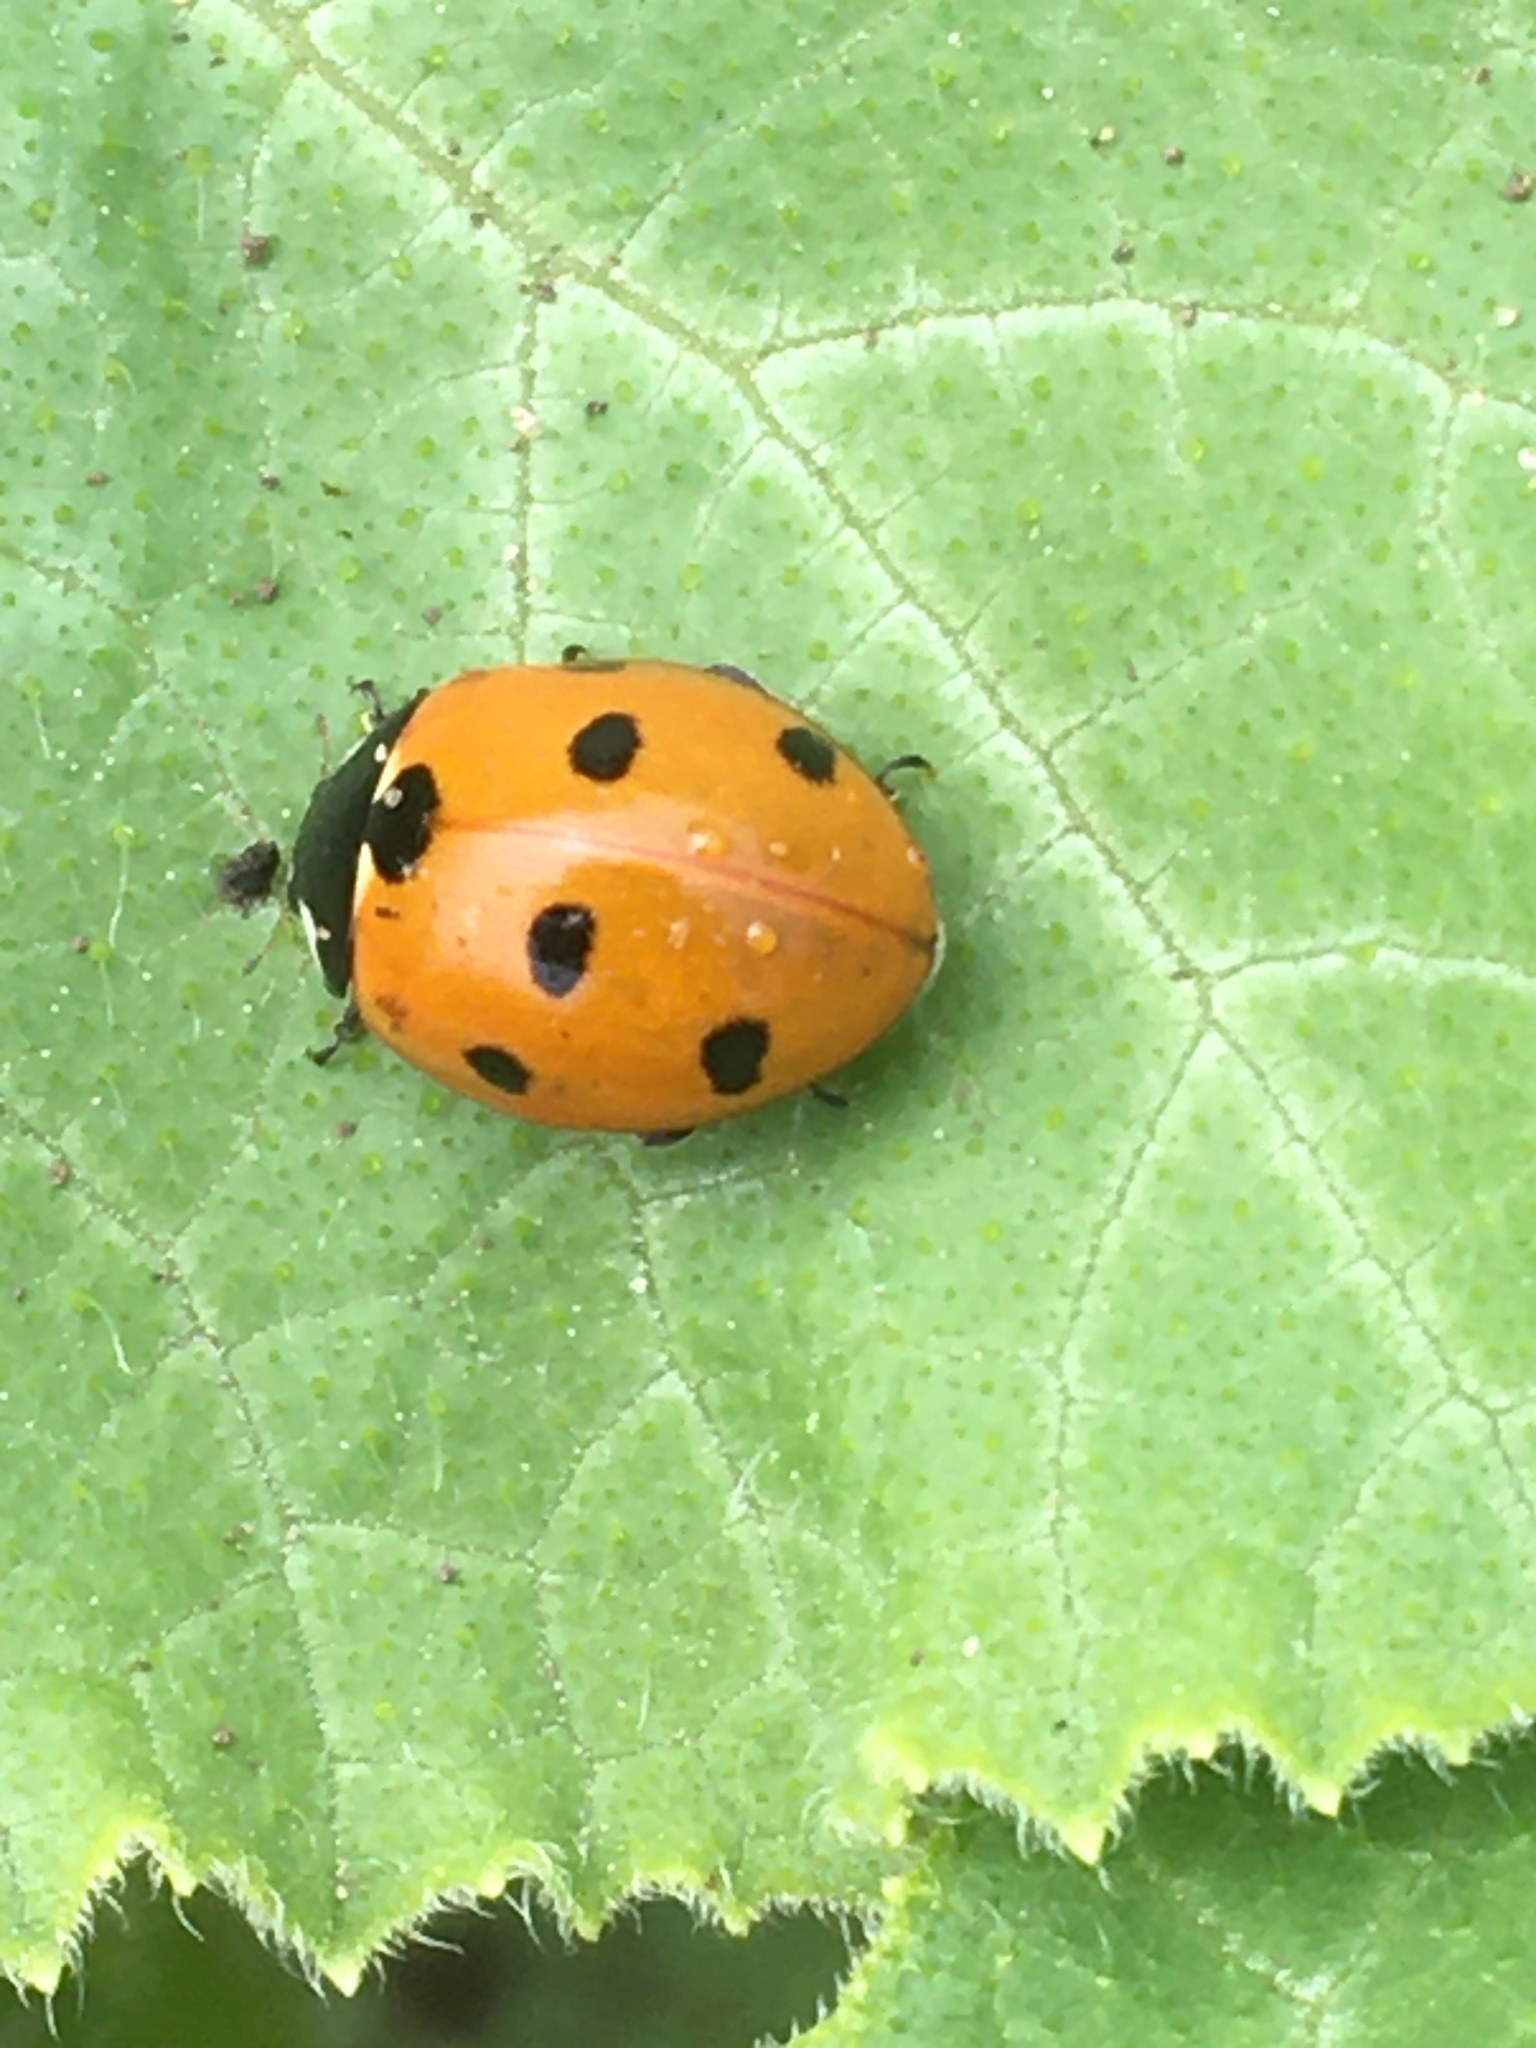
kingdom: Animalia
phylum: Arthropoda
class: Insecta
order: Coleoptera
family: Coccinellidae
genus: Coccinella
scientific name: Coccinella septempunctata
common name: Sevenspotted lady beetle
